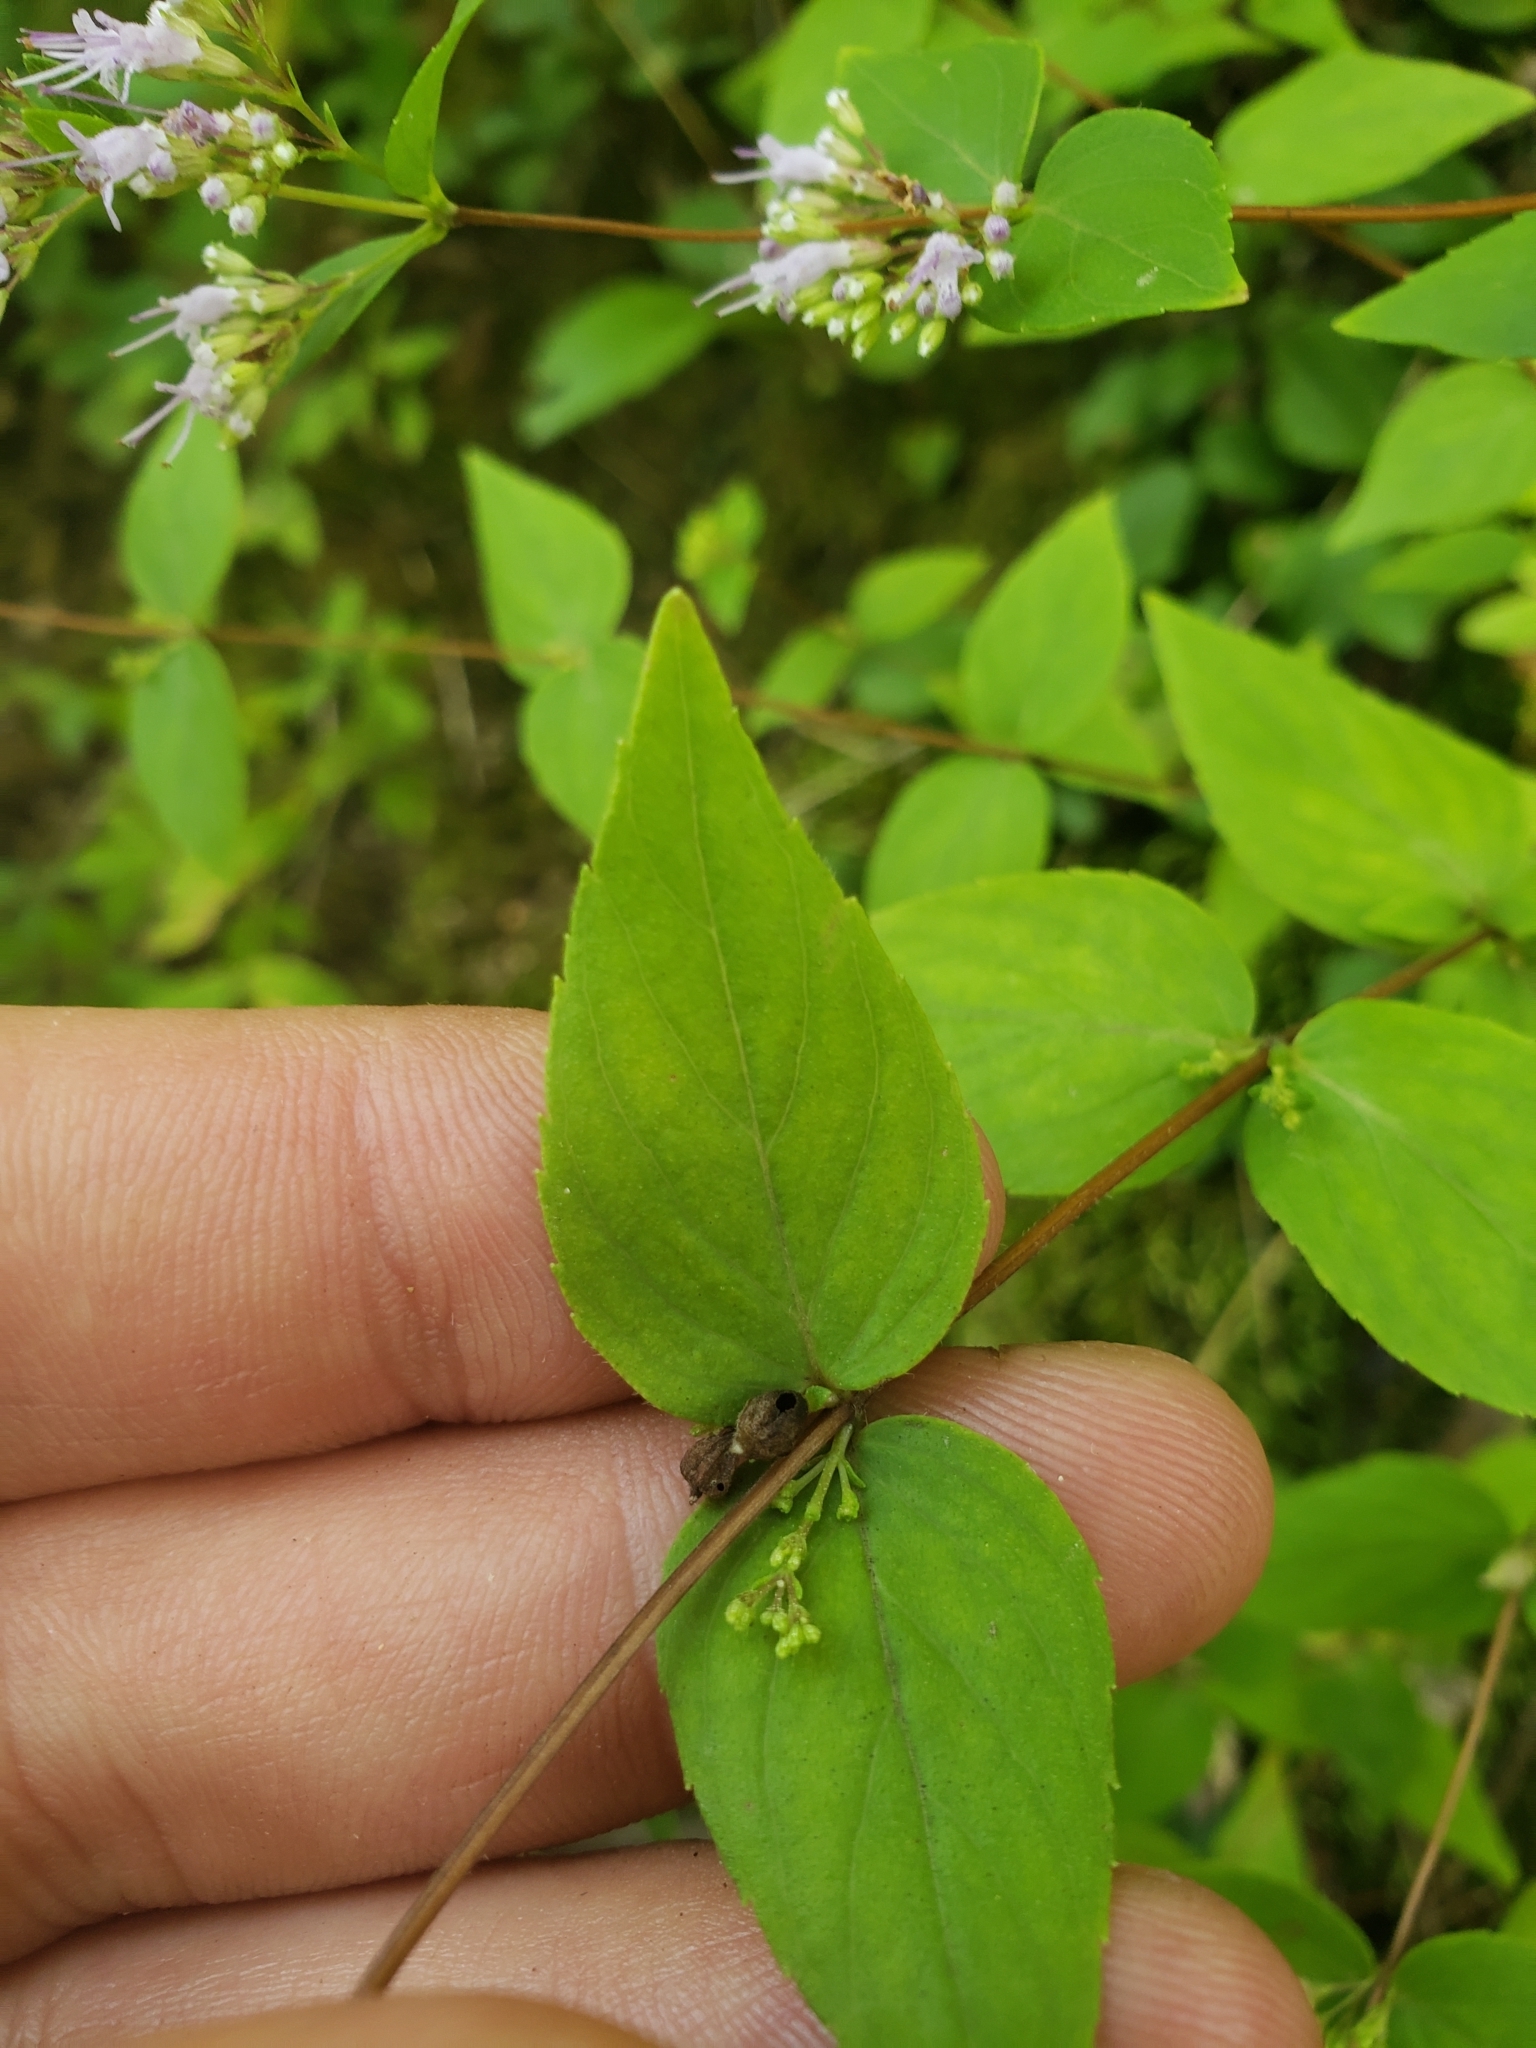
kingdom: Plantae
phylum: Tracheophyta
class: Magnoliopsida
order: Lamiales
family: Lamiaceae
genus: Cunila
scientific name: Cunila origanoides
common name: American dittany
